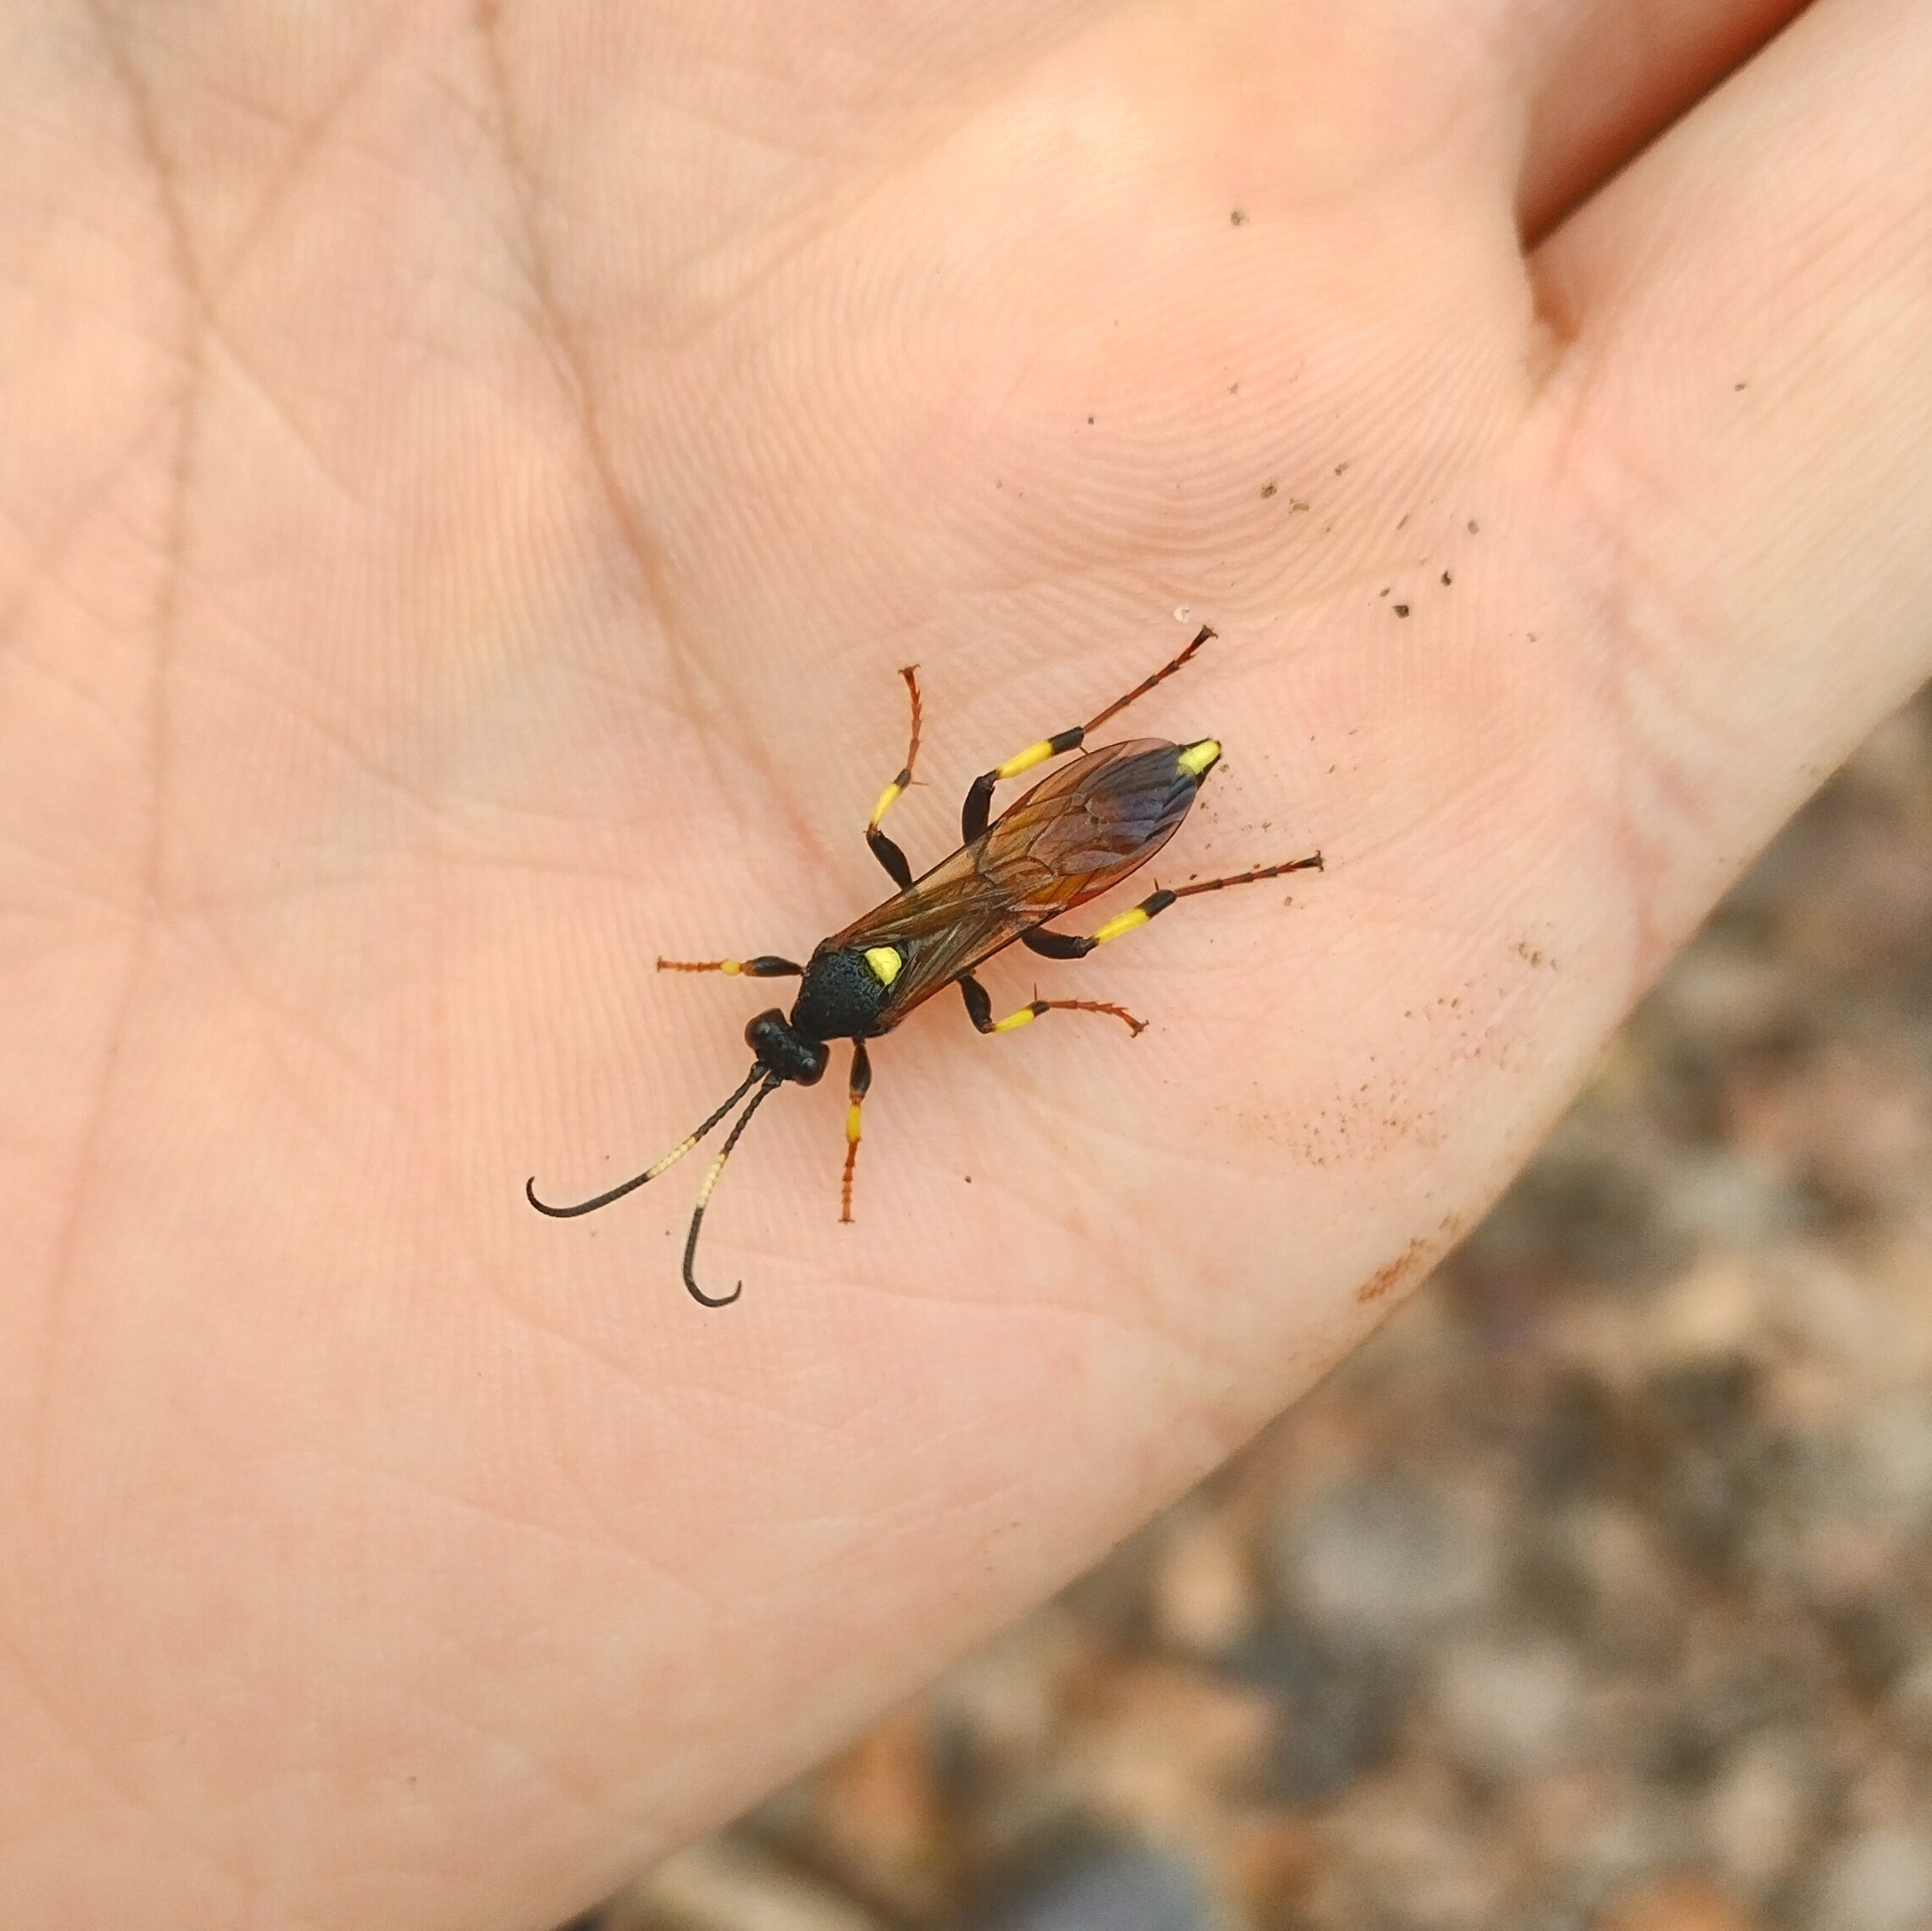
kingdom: Animalia
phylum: Arthropoda
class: Insecta
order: Hymenoptera
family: Ichneumonidae
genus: Ichneumon
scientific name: Ichneumon stramentor
